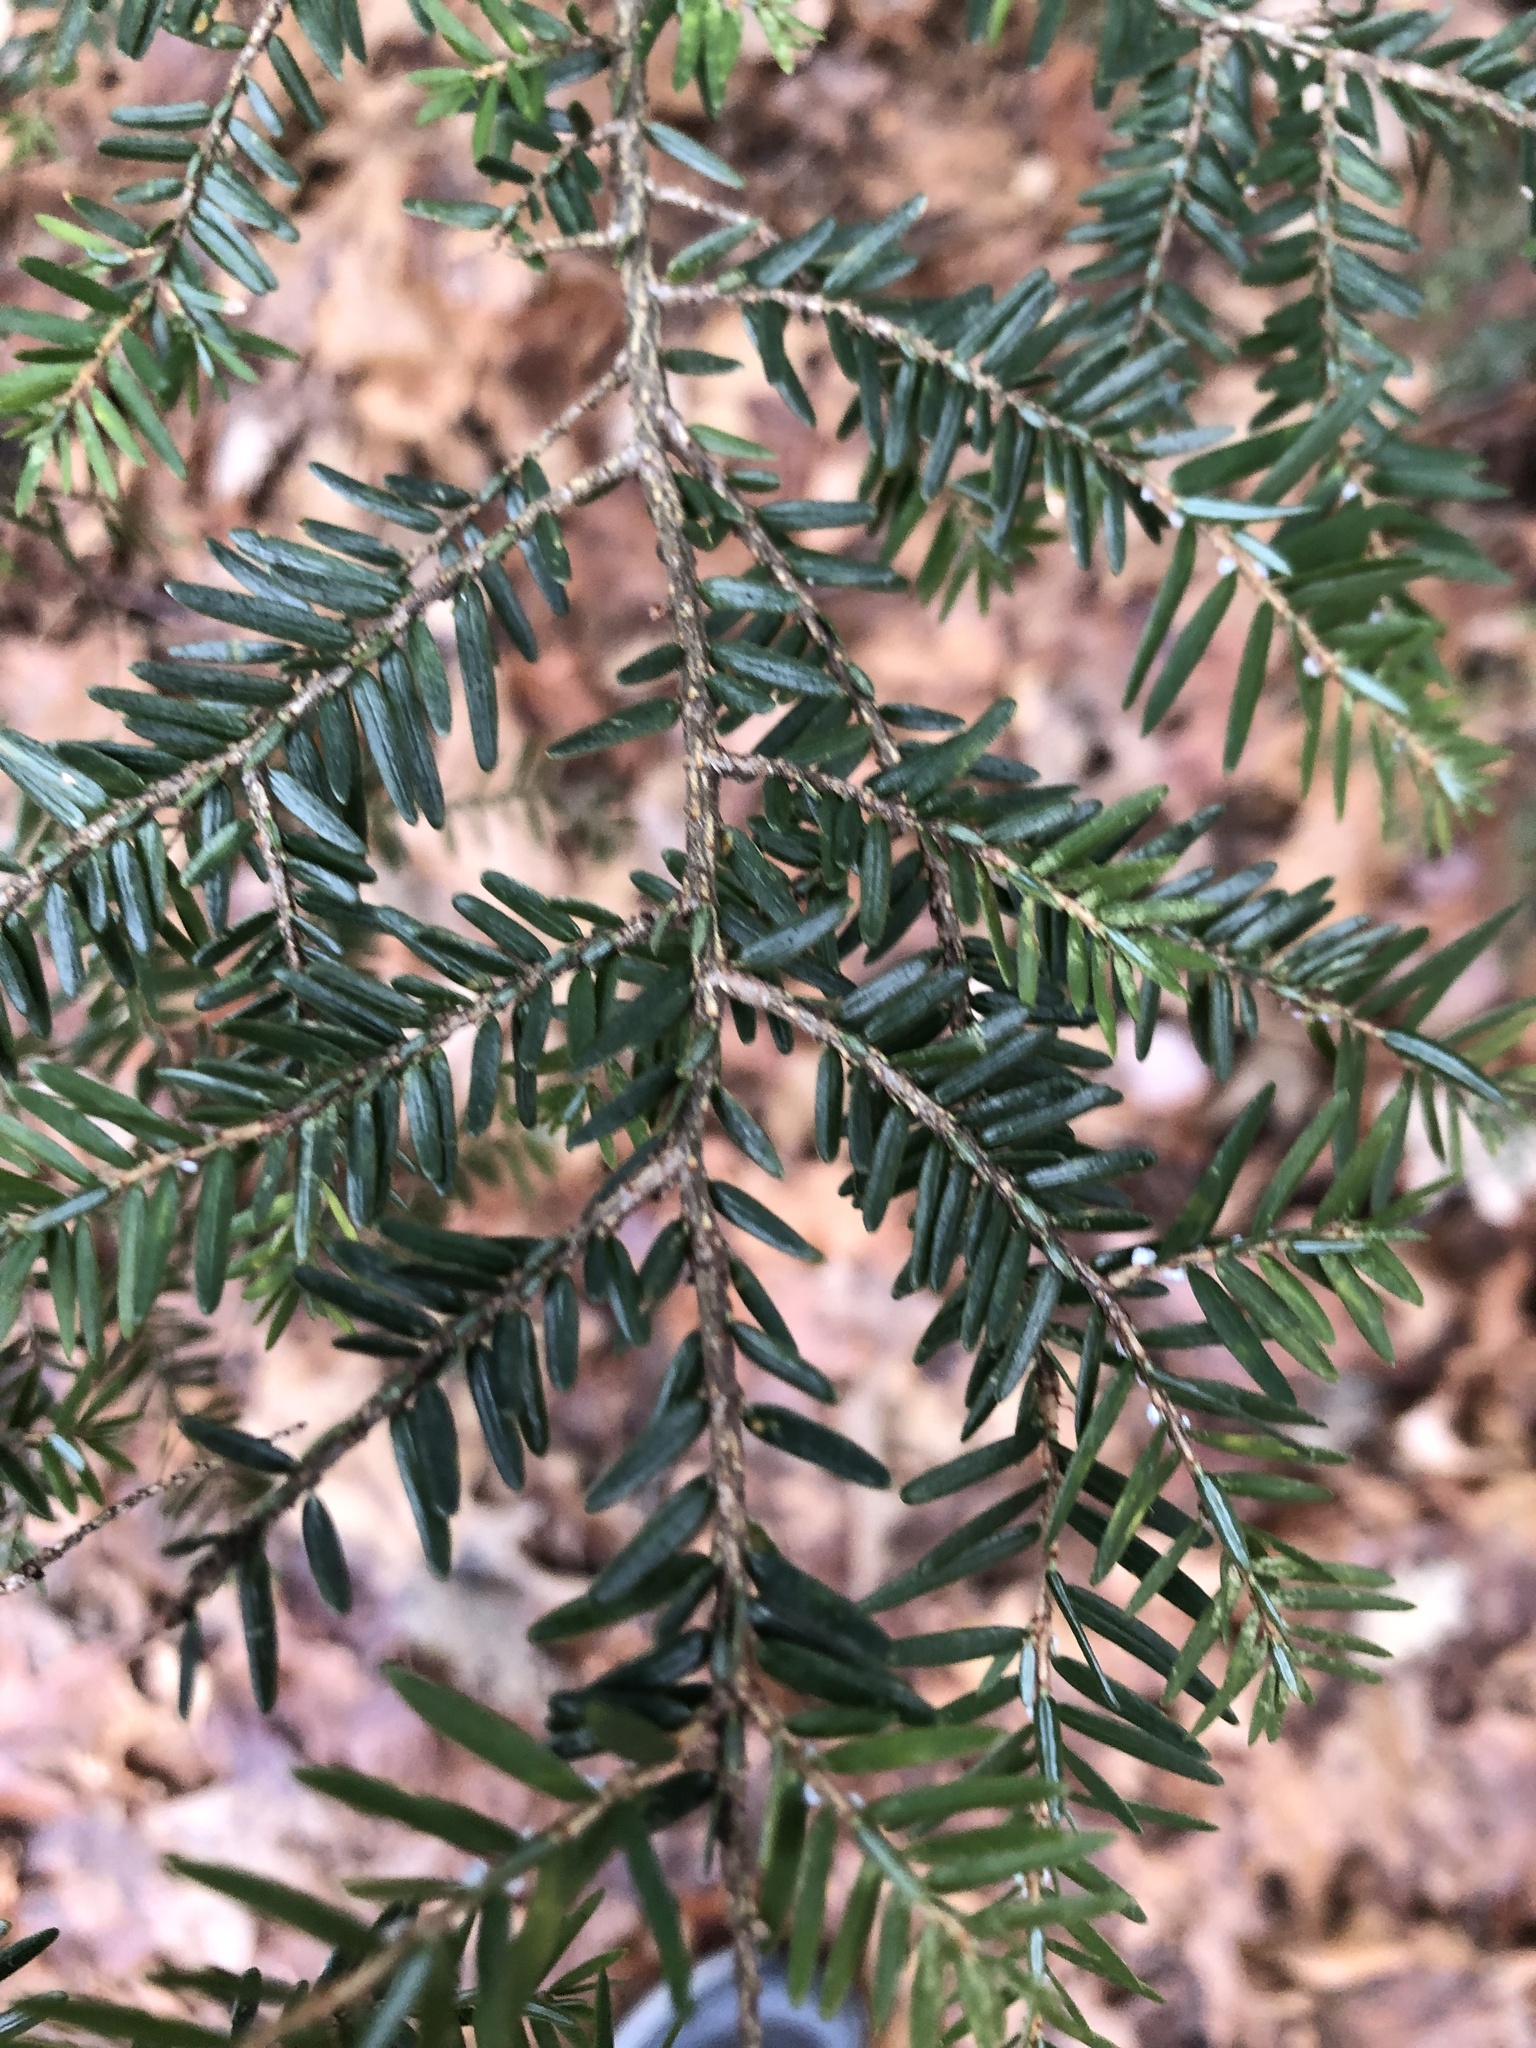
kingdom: Plantae
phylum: Tracheophyta
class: Pinopsida
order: Pinales
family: Pinaceae
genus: Tsuga
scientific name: Tsuga canadensis
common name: Eastern hemlock
